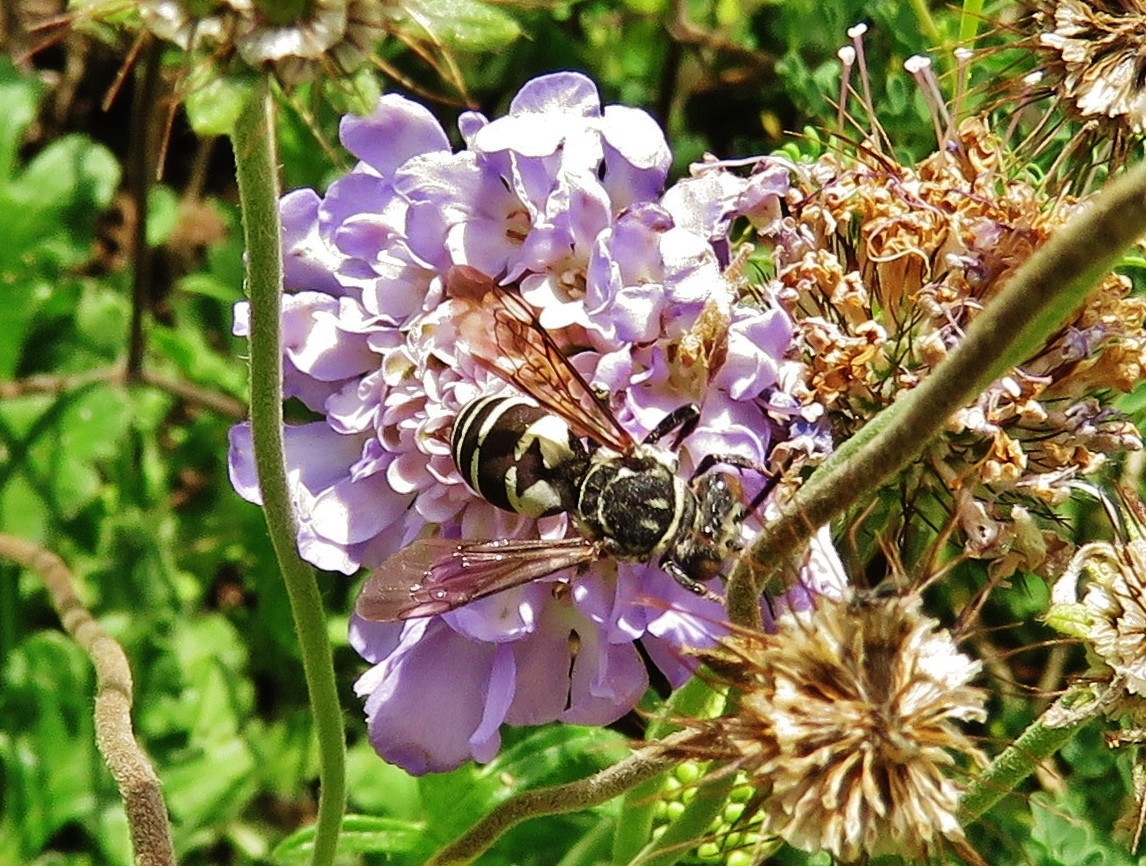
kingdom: Animalia
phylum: Arthropoda
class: Insecta
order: Hymenoptera
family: Apidae
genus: Triepeolus
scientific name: Triepeolus lunatus
